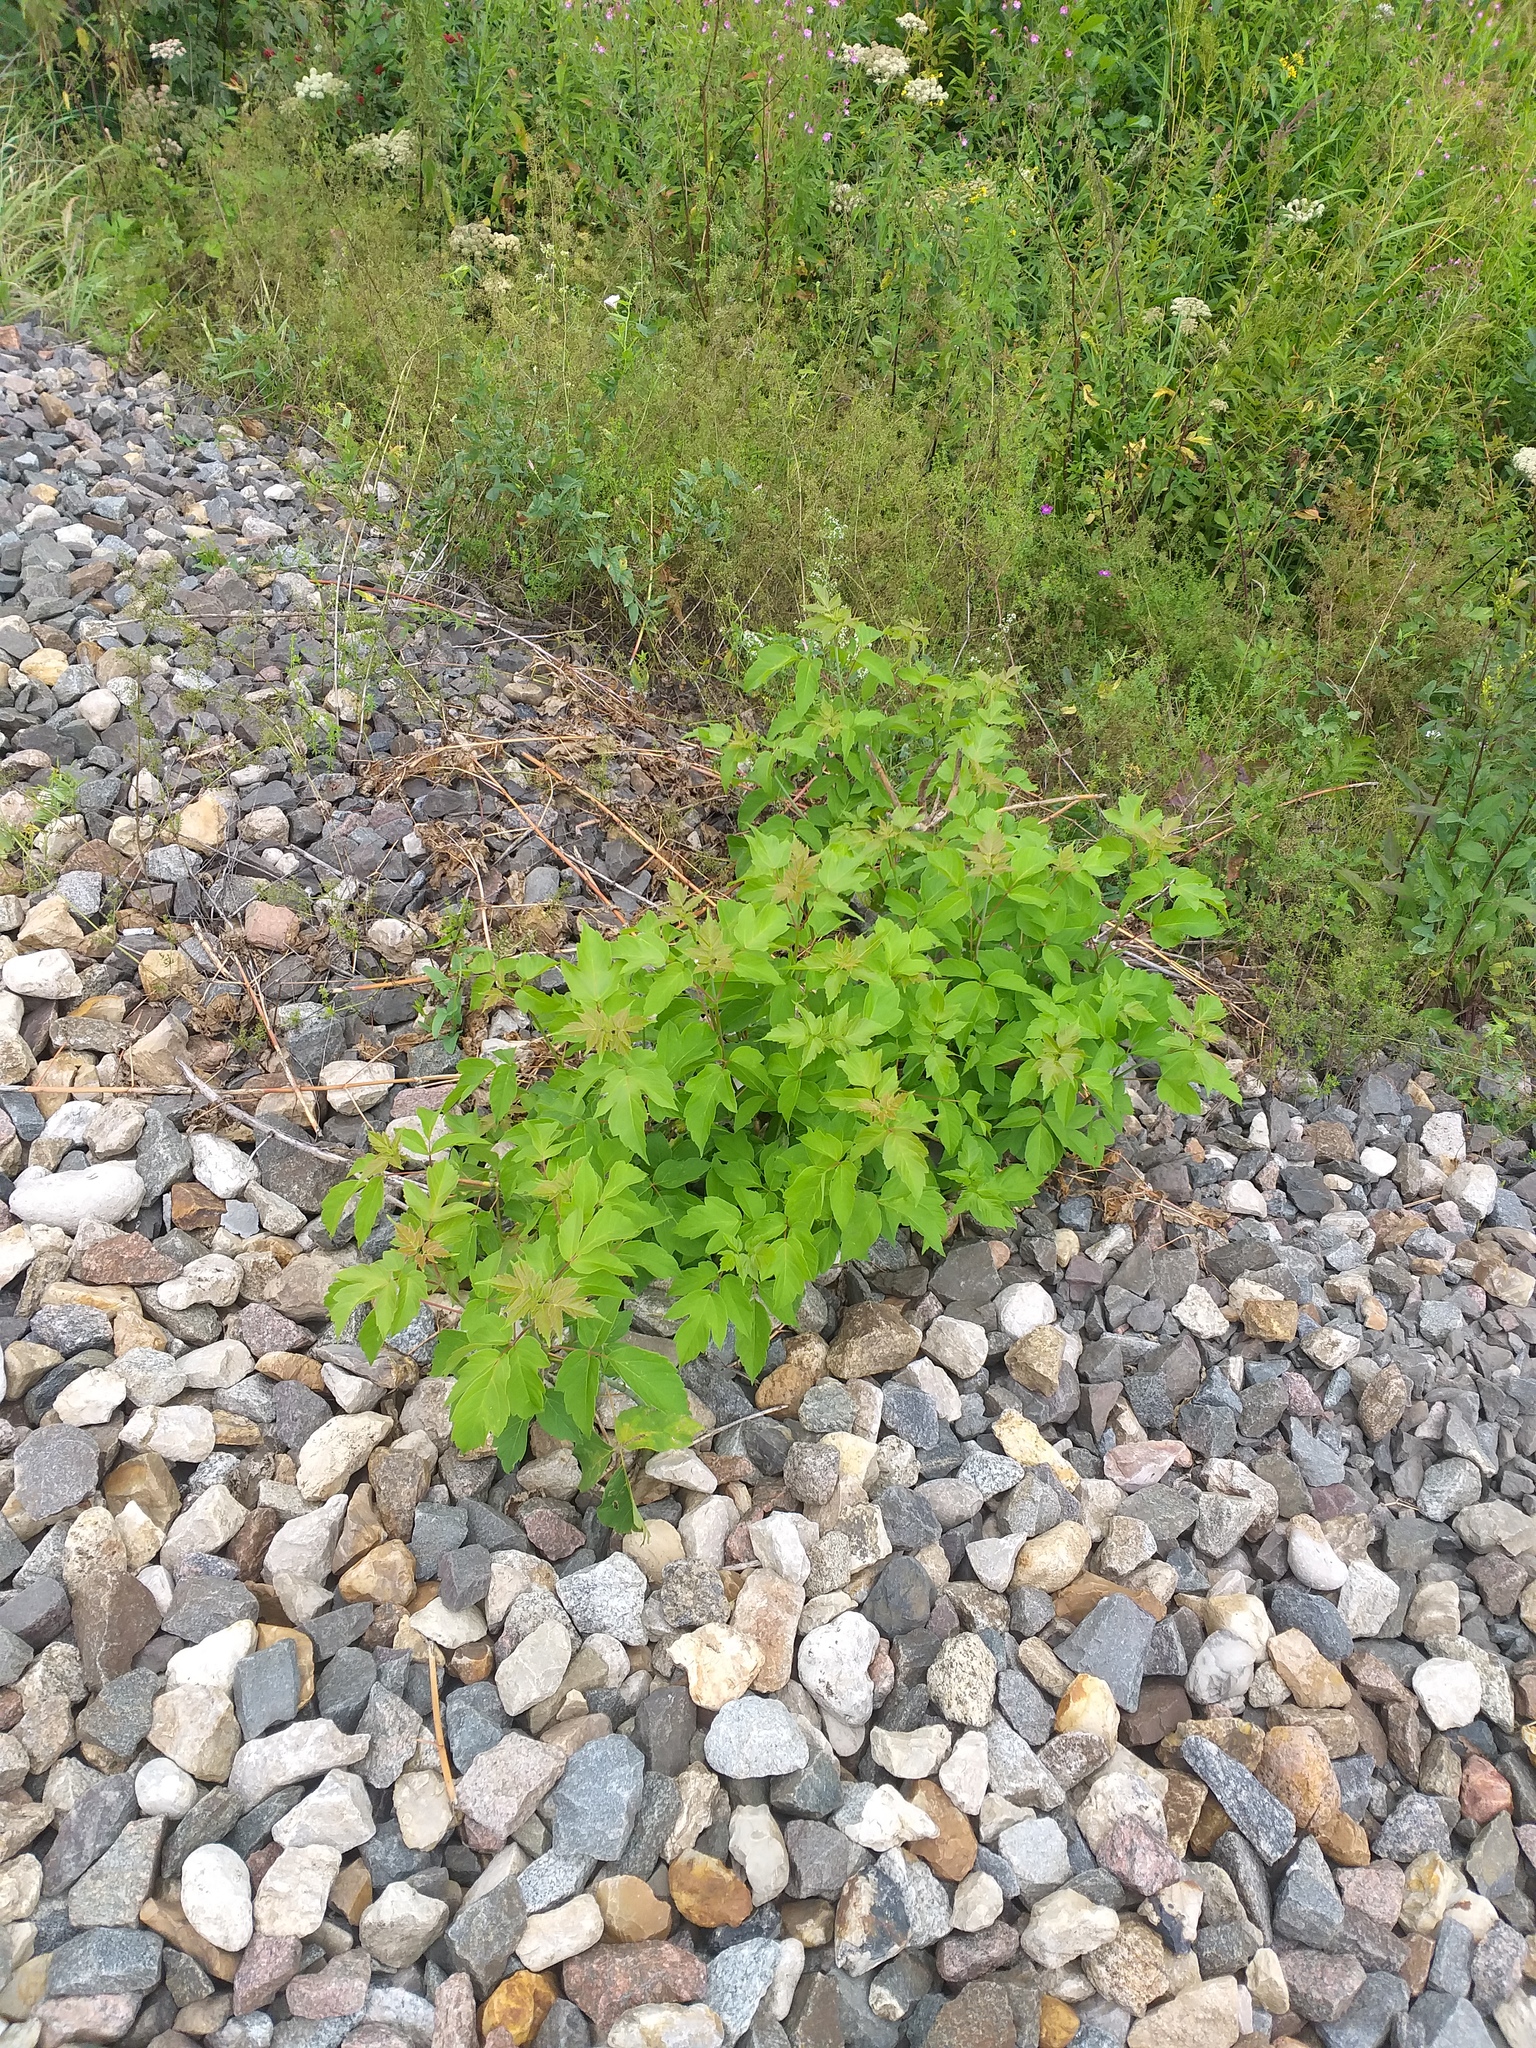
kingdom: Plantae
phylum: Tracheophyta
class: Magnoliopsida
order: Sapindales
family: Sapindaceae
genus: Acer
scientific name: Acer negundo
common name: Ashleaf maple
